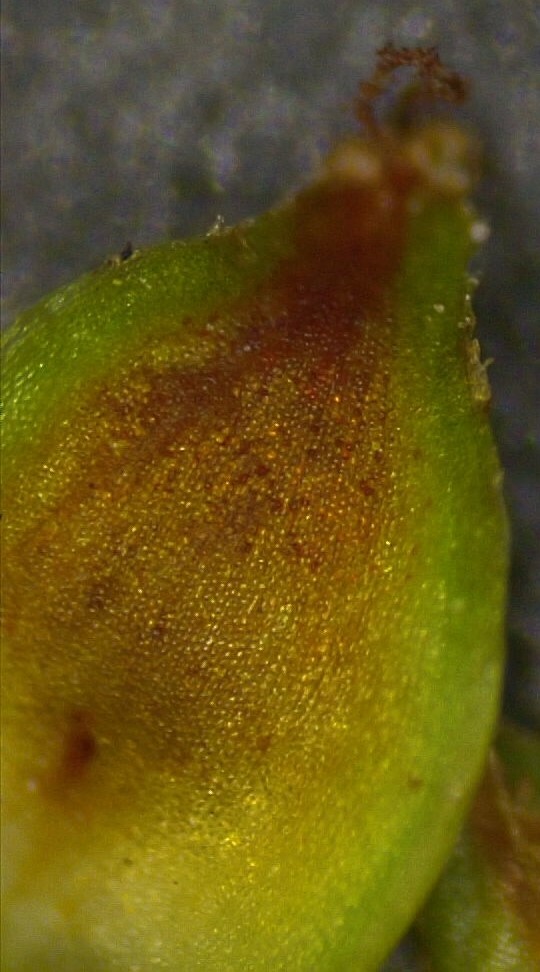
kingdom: Plantae
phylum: Tracheophyta
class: Liliopsida
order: Poales
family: Cyperaceae
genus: Carex
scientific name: Carex triangularis
